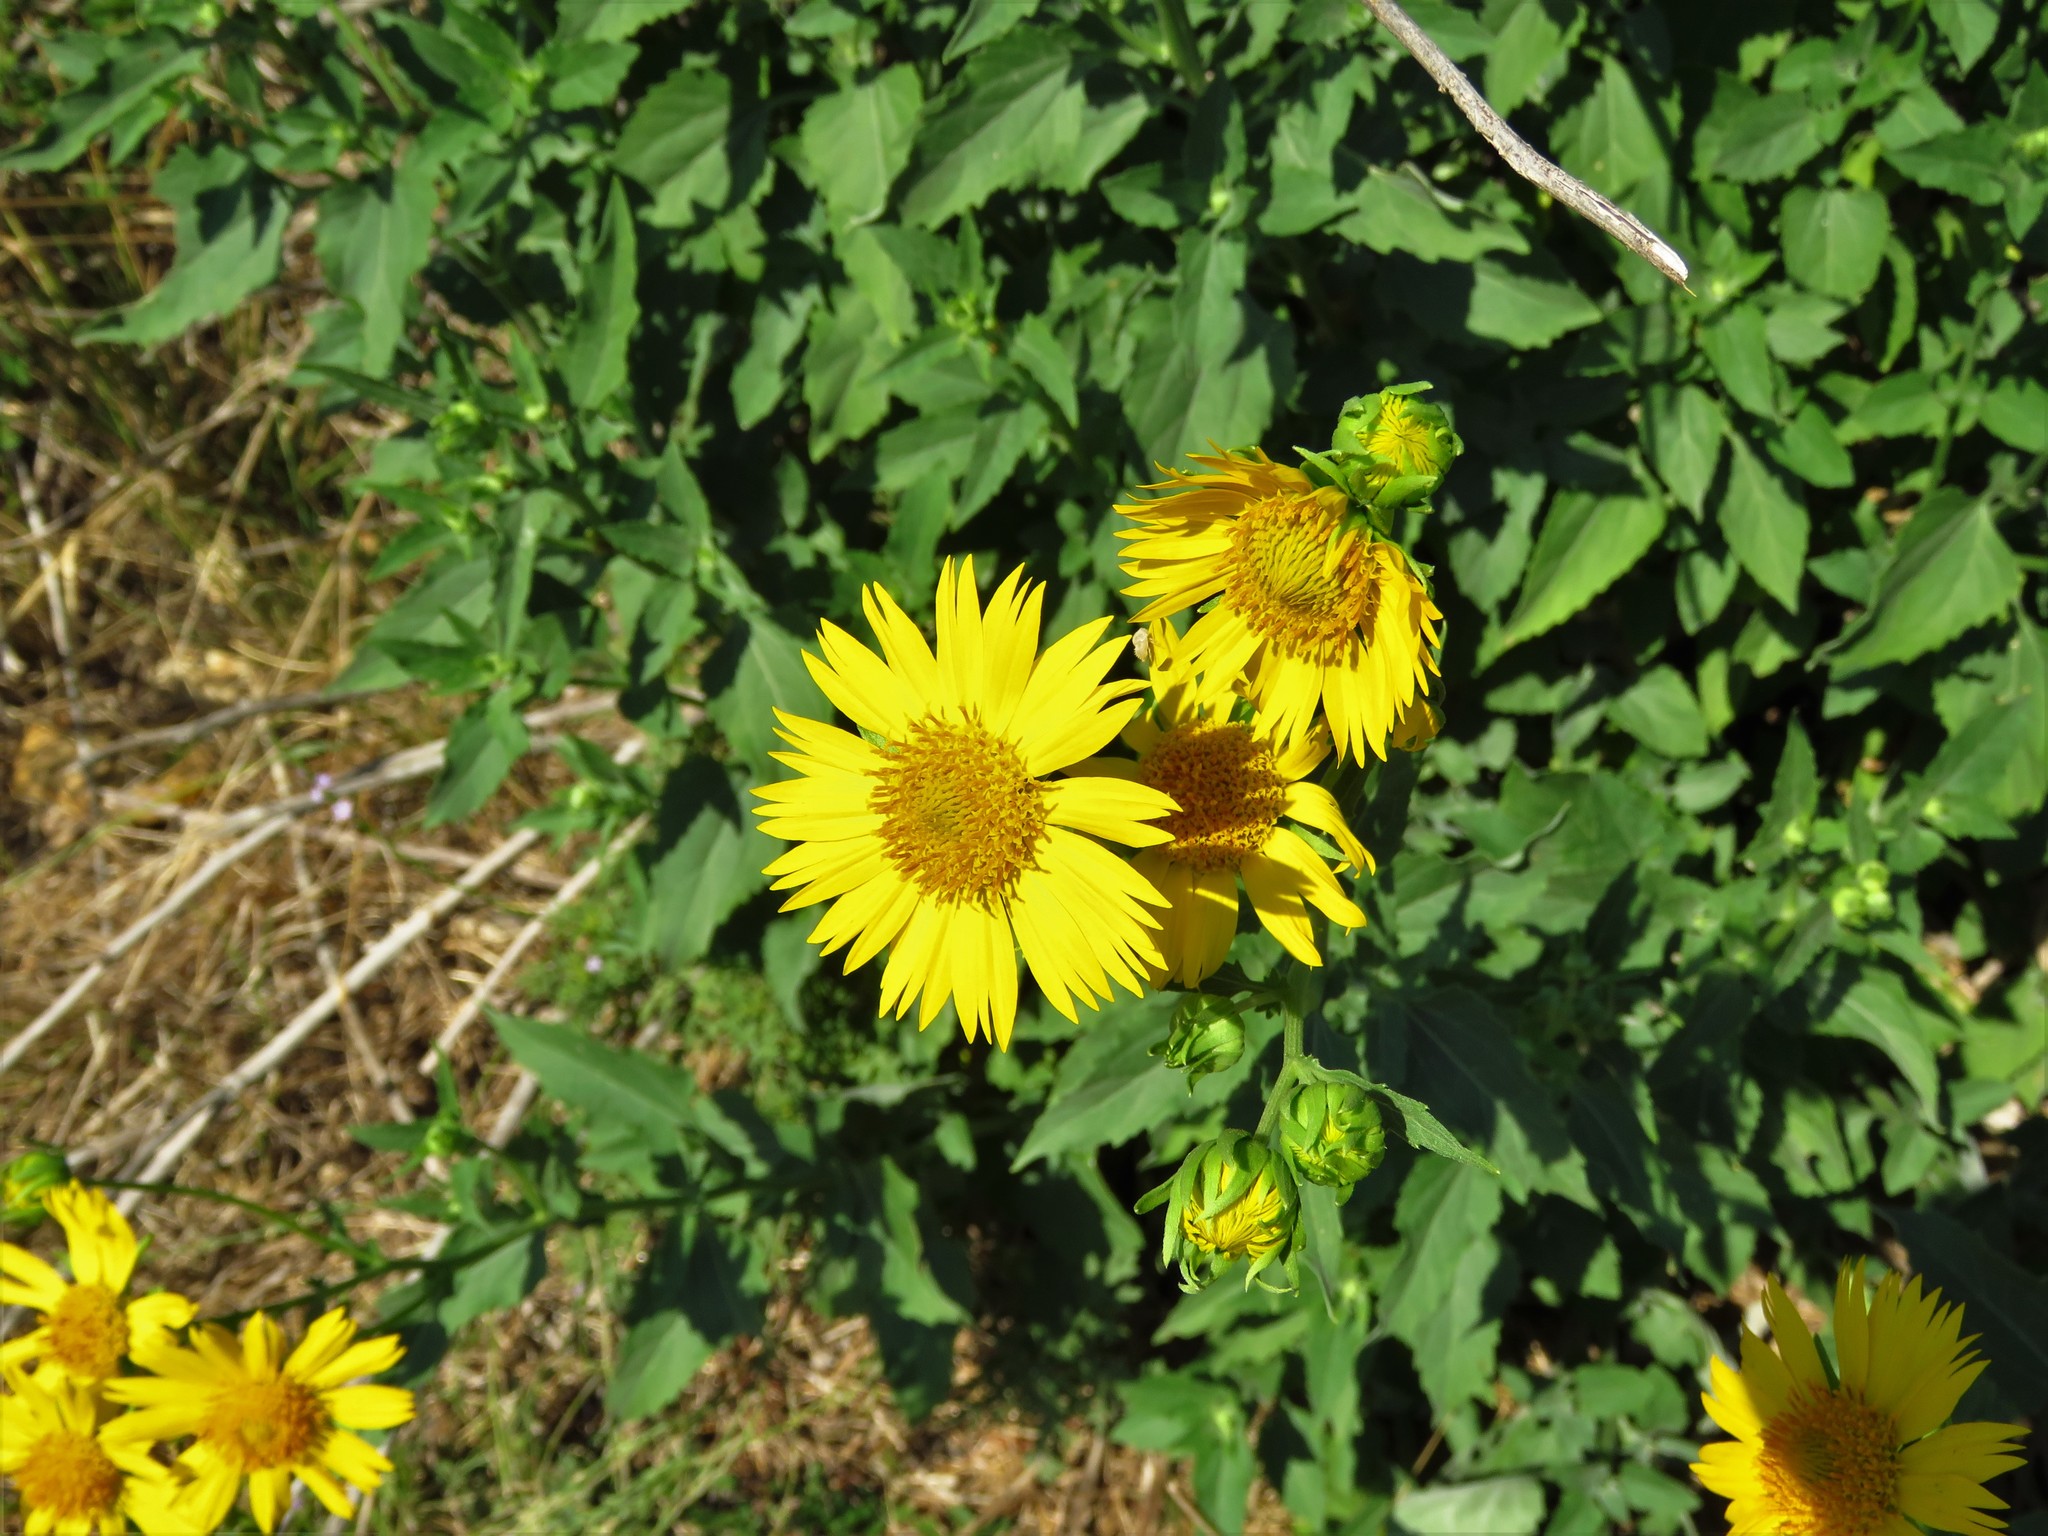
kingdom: Plantae
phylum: Tracheophyta
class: Magnoliopsida
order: Asterales
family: Asteraceae
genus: Verbesina
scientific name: Verbesina encelioides
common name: Golden crownbeard
